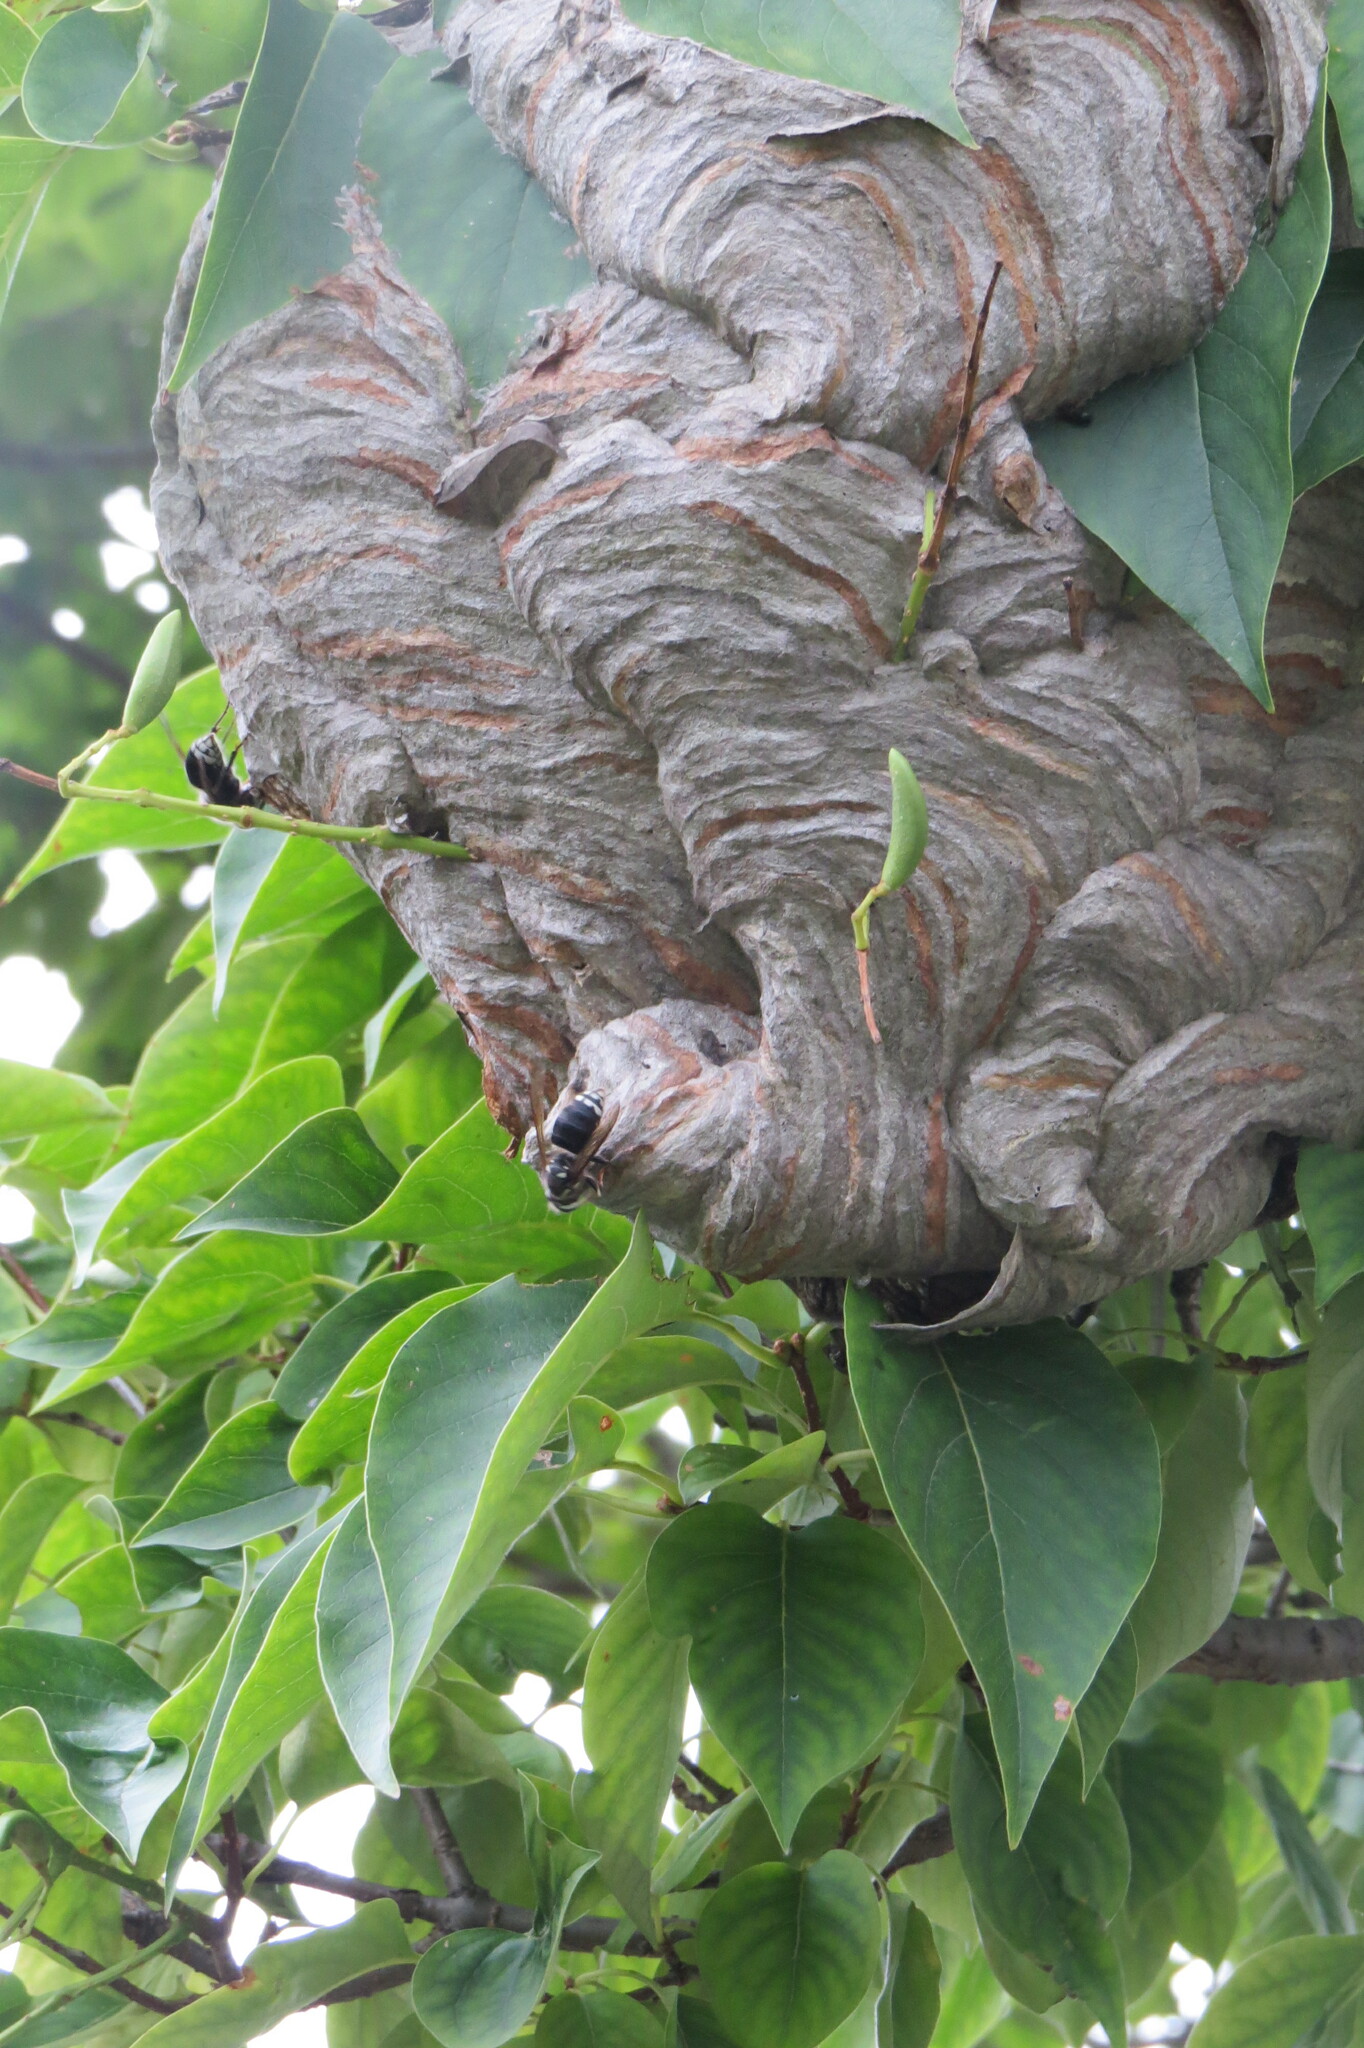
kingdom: Animalia
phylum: Arthropoda
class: Insecta
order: Hymenoptera
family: Vespidae
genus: Dolichovespula
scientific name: Dolichovespula maculata
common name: Bald-faced hornet
